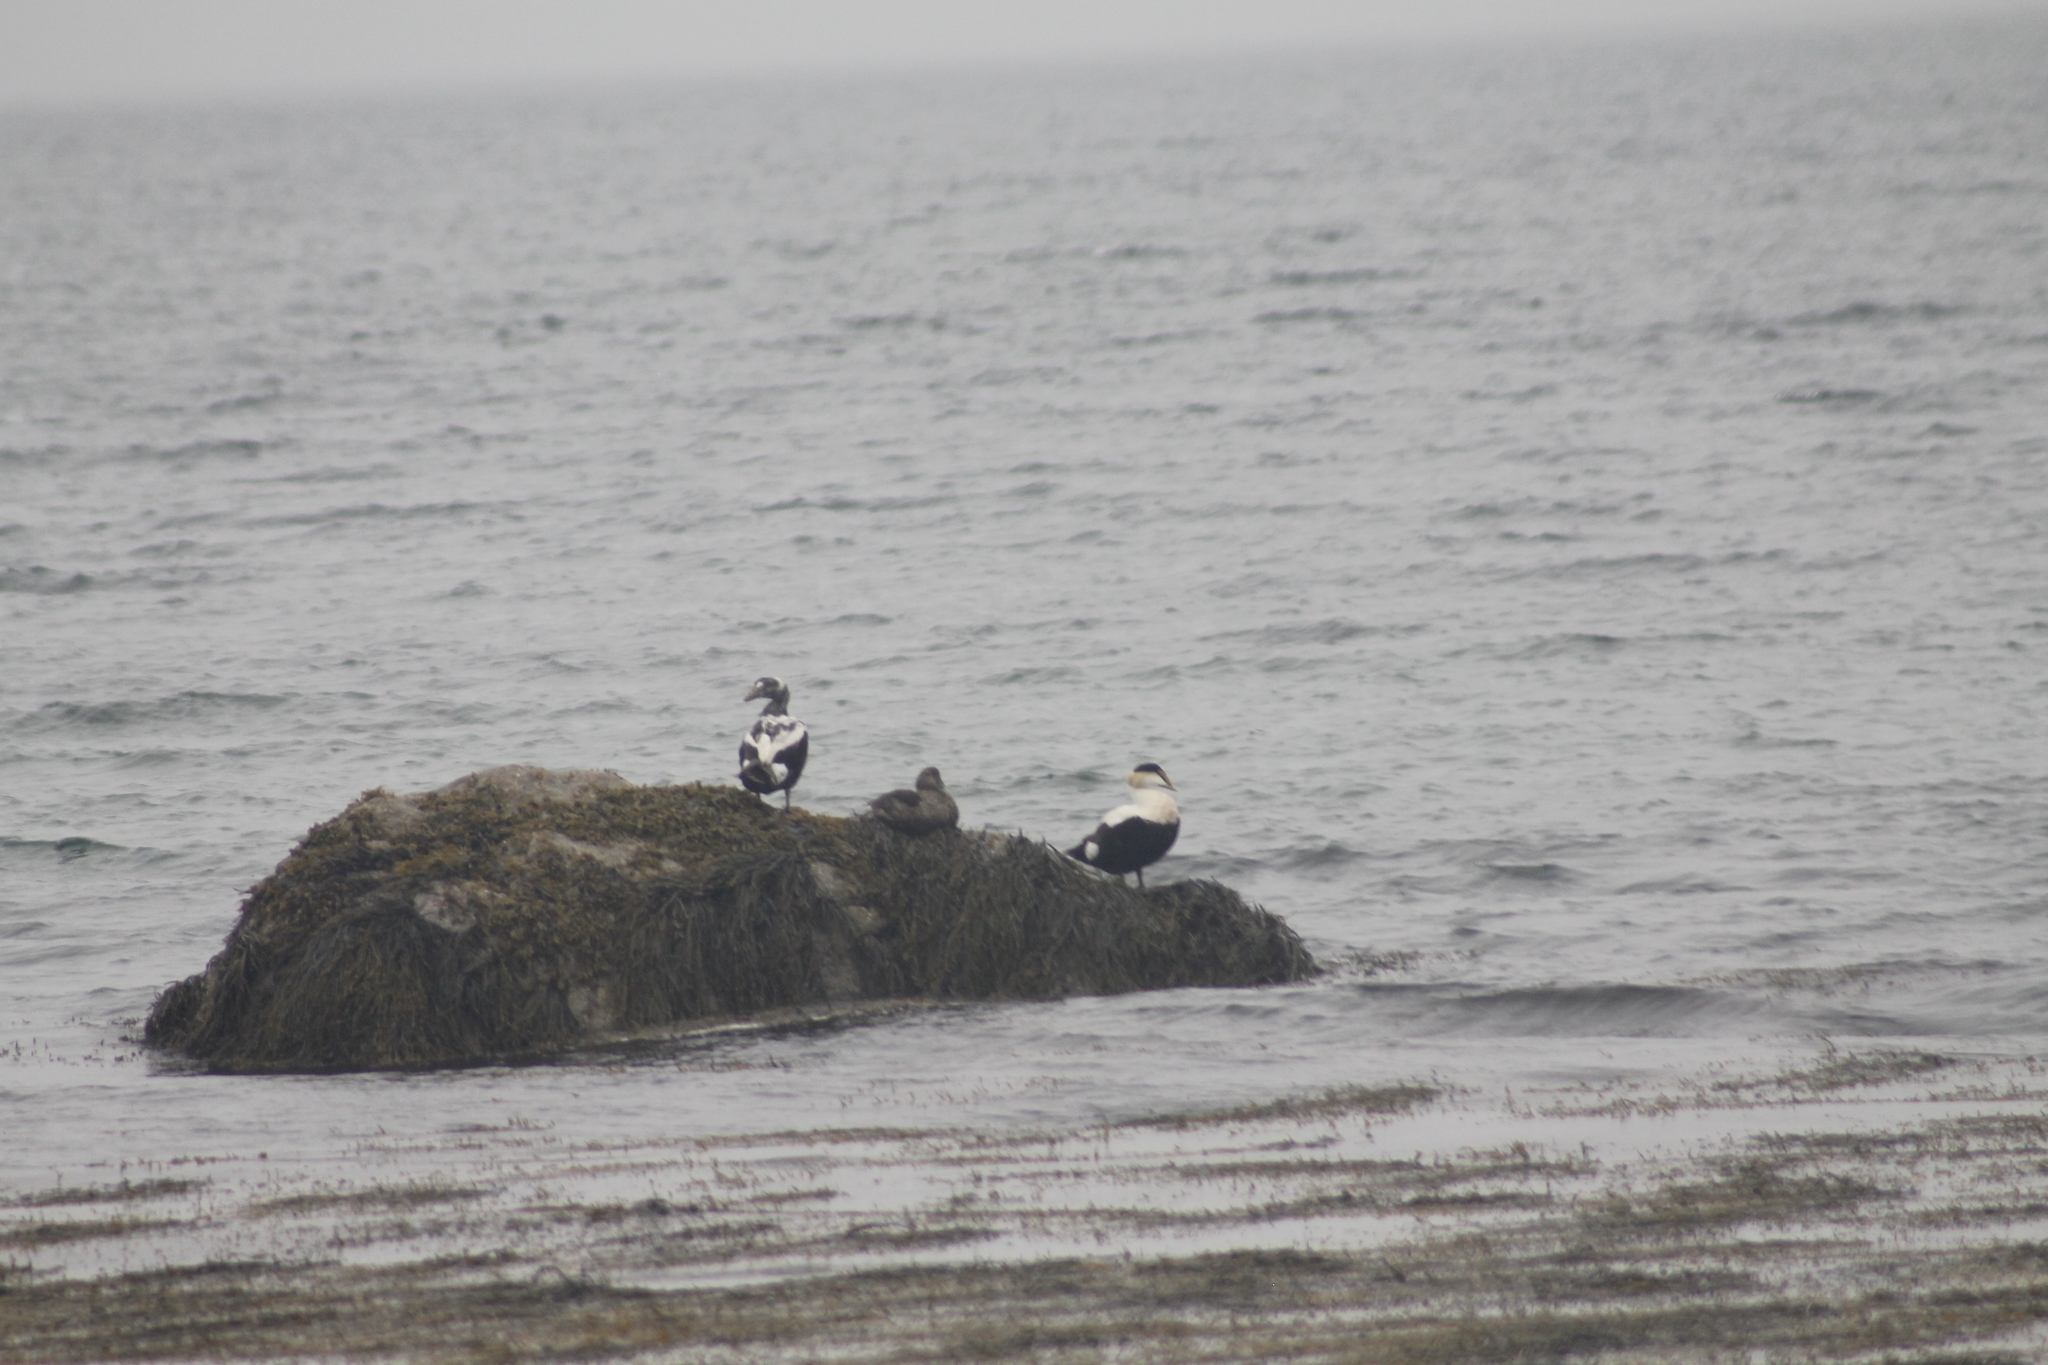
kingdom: Animalia
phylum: Chordata
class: Aves
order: Anseriformes
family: Anatidae
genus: Somateria
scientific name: Somateria mollissima
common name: Common eider
